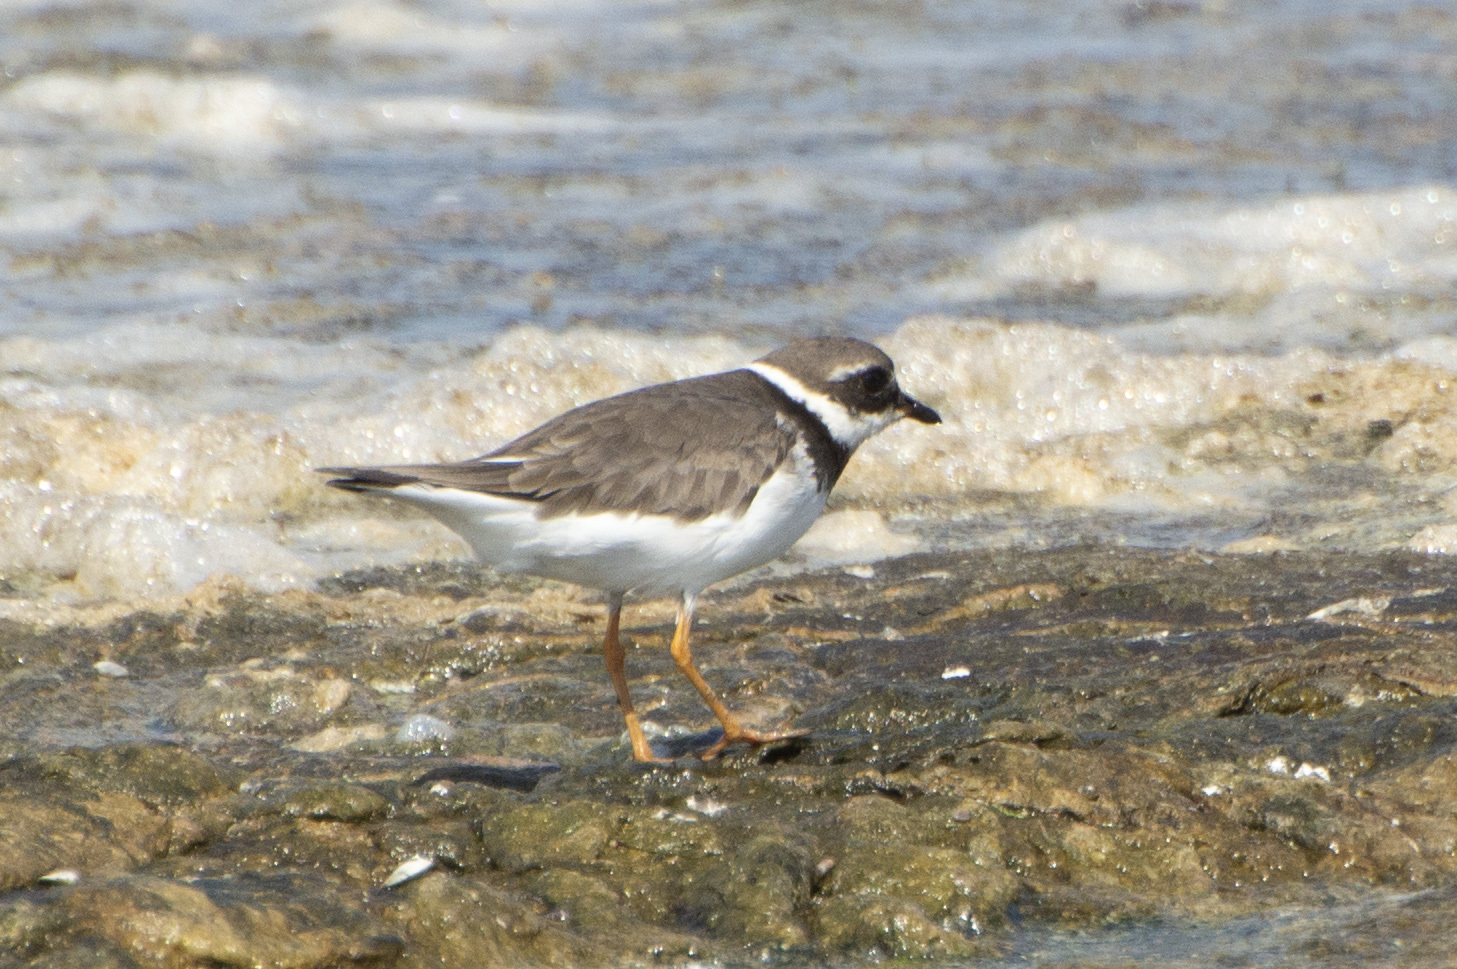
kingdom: Animalia
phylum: Chordata
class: Aves
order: Charadriiformes
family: Charadriidae
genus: Charadrius
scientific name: Charadrius hiaticula
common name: Common ringed plover
